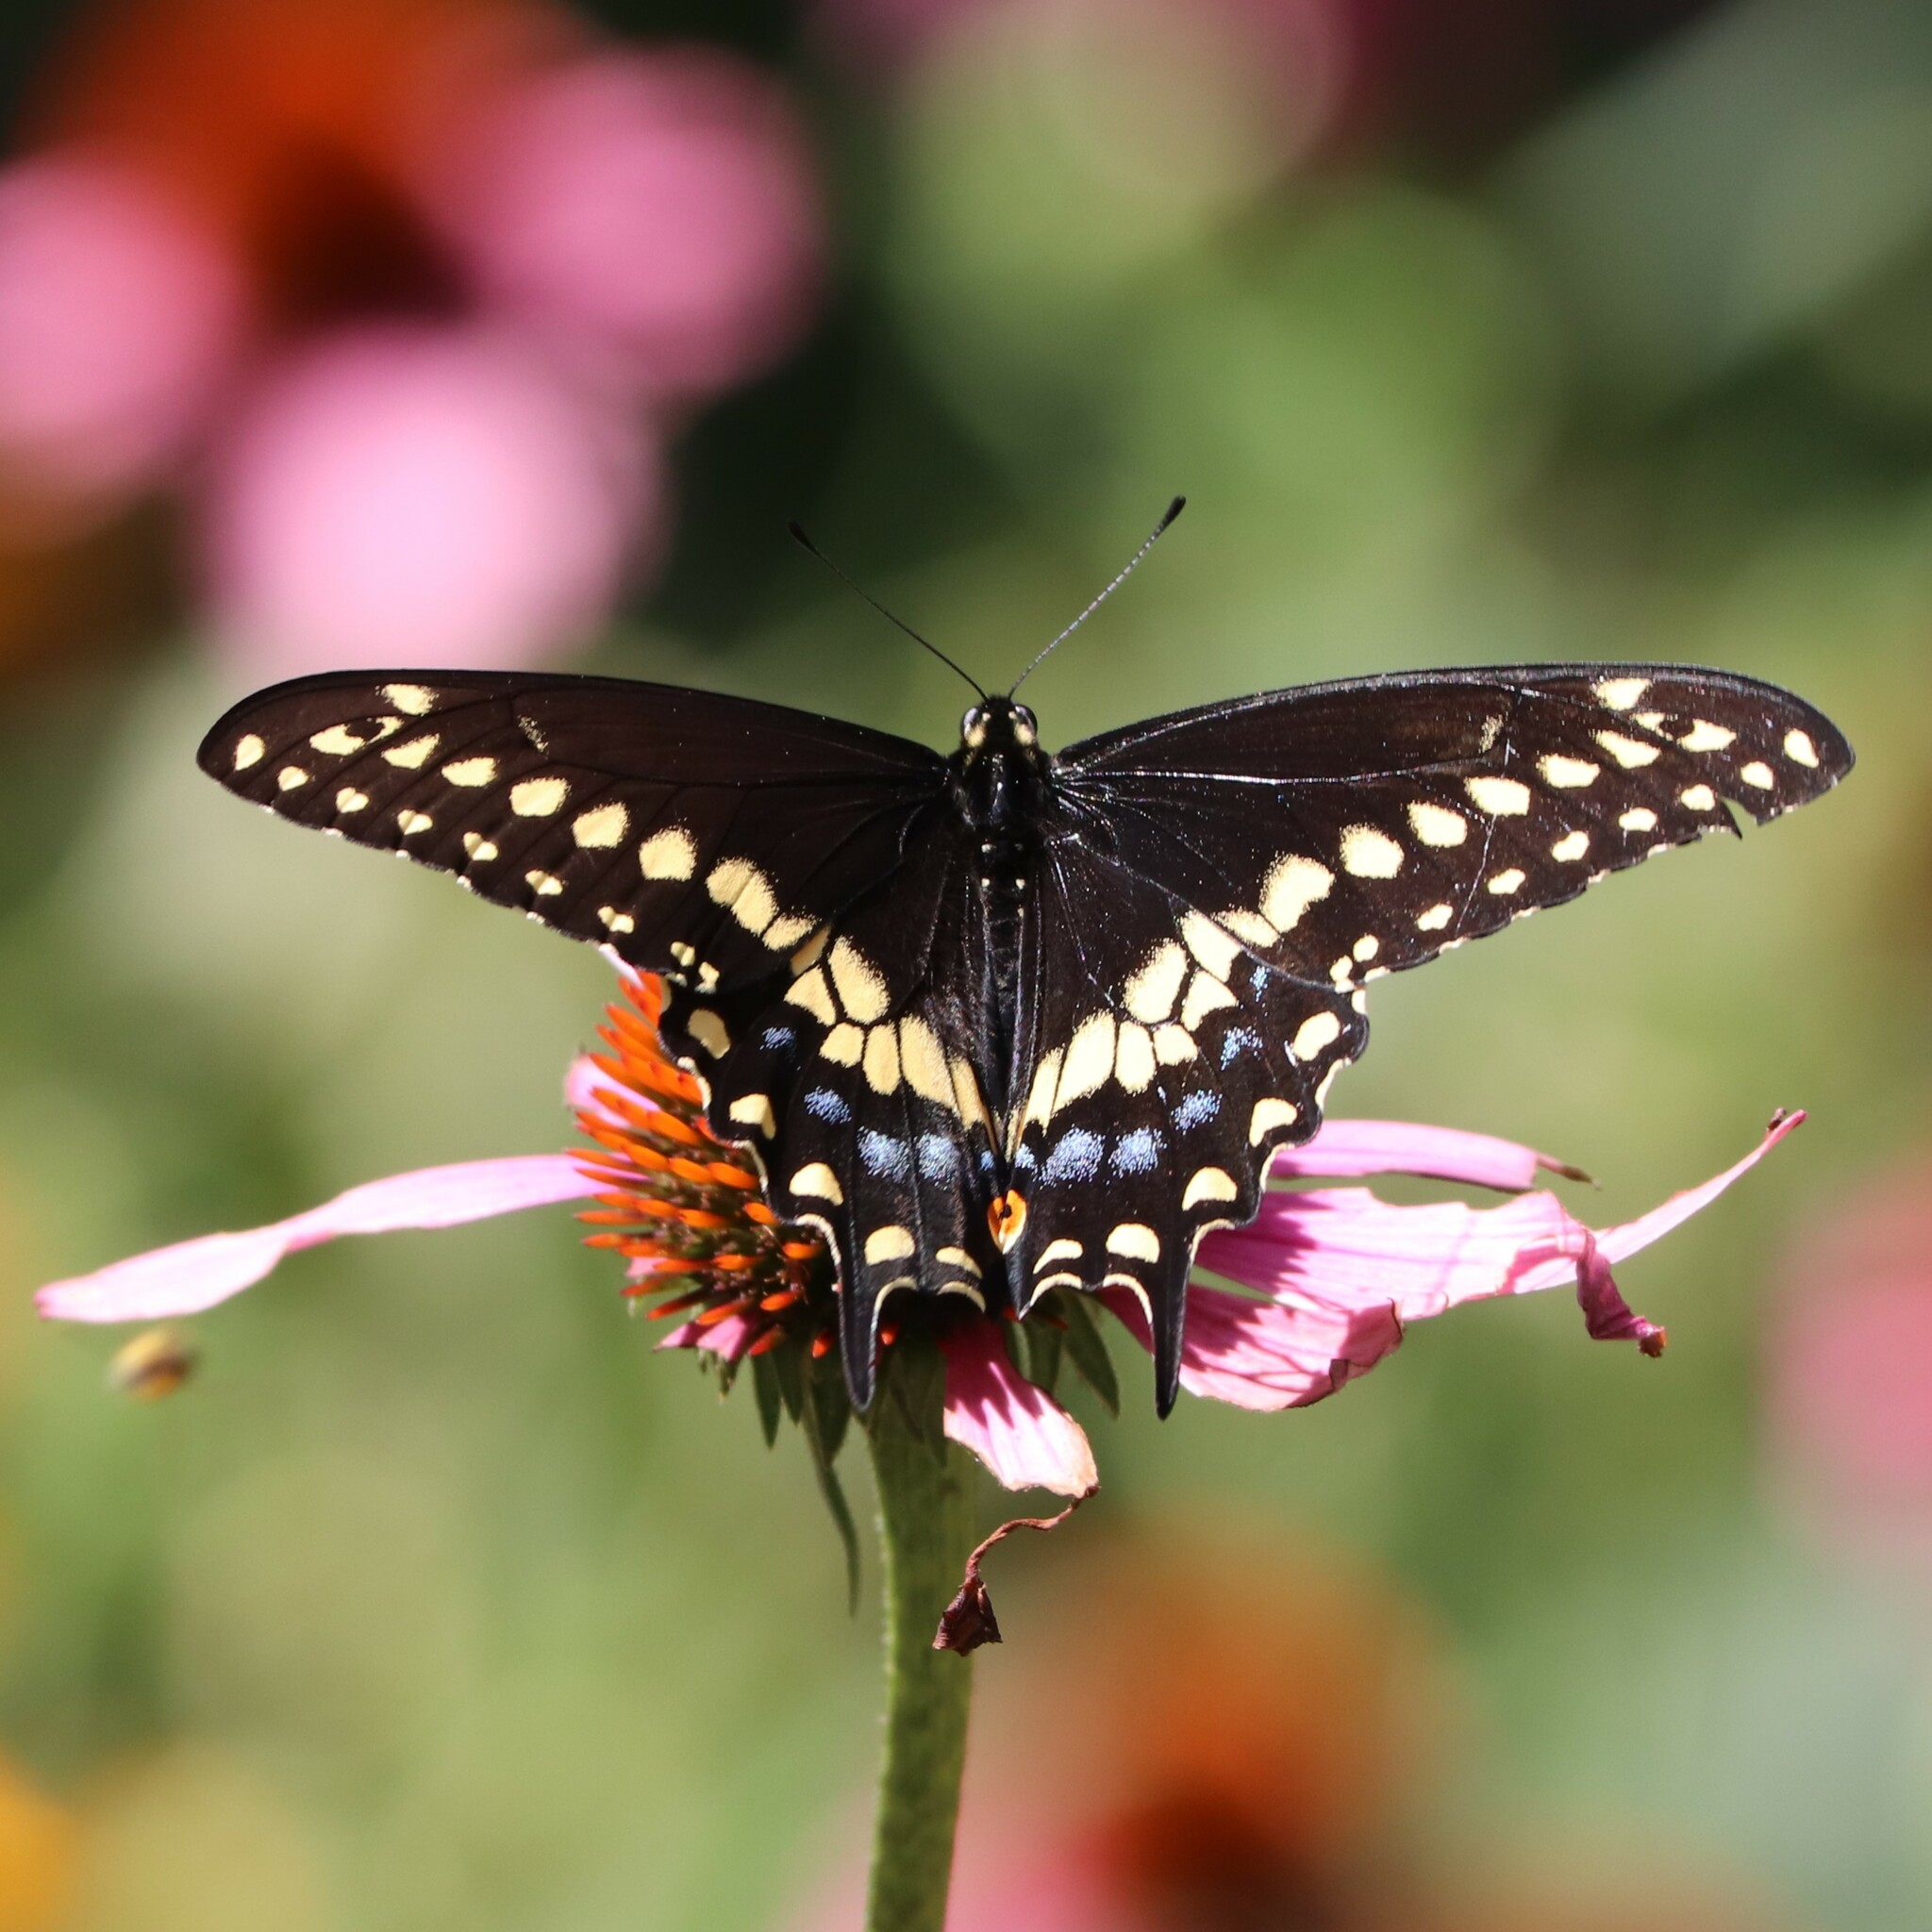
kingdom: Animalia
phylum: Arthropoda
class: Insecta
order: Lepidoptera
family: Papilionidae
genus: Papilio
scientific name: Papilio polyxenes
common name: Black swallowtail
